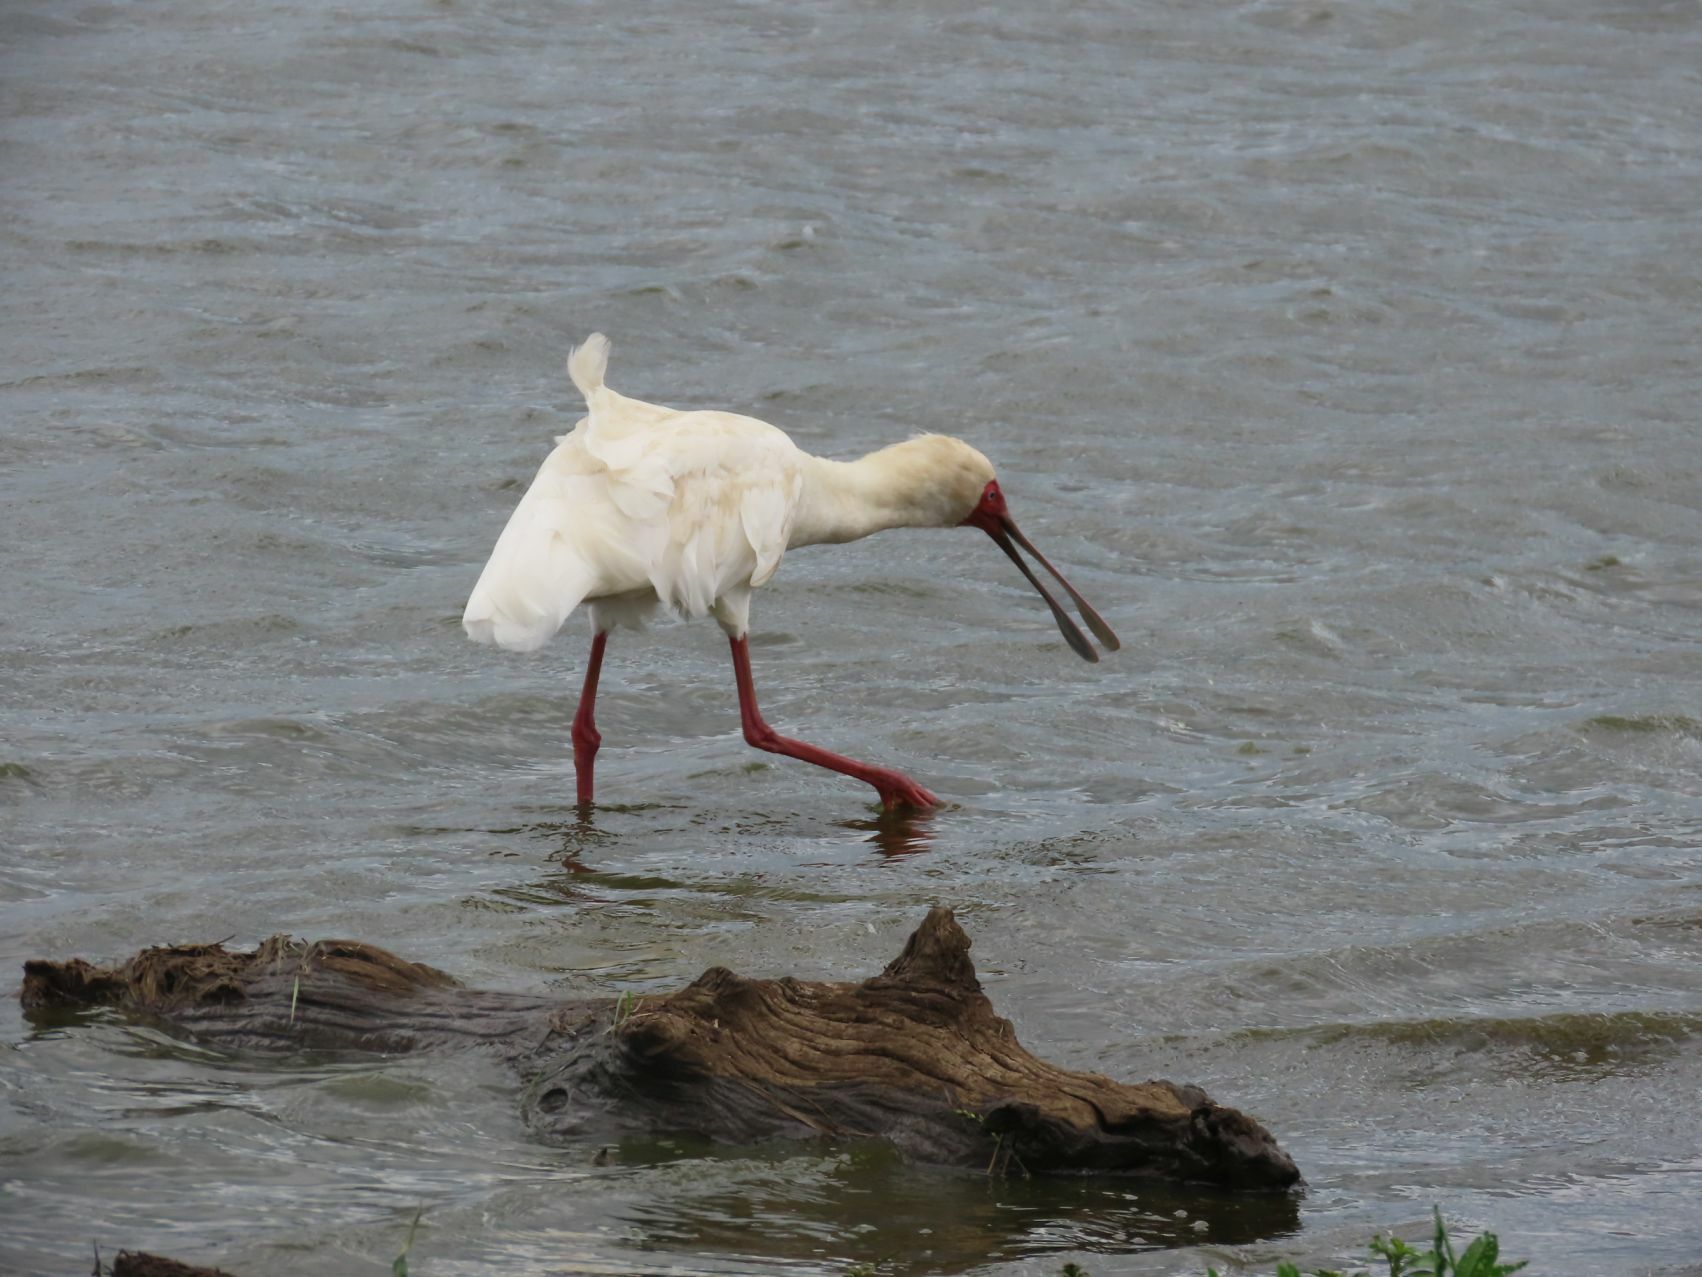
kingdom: Animalia
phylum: Chordata
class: Aves
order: Pelecaniformes
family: Threskiornithidae
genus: Platalea
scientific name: Platalea alba
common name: African spoonbill
